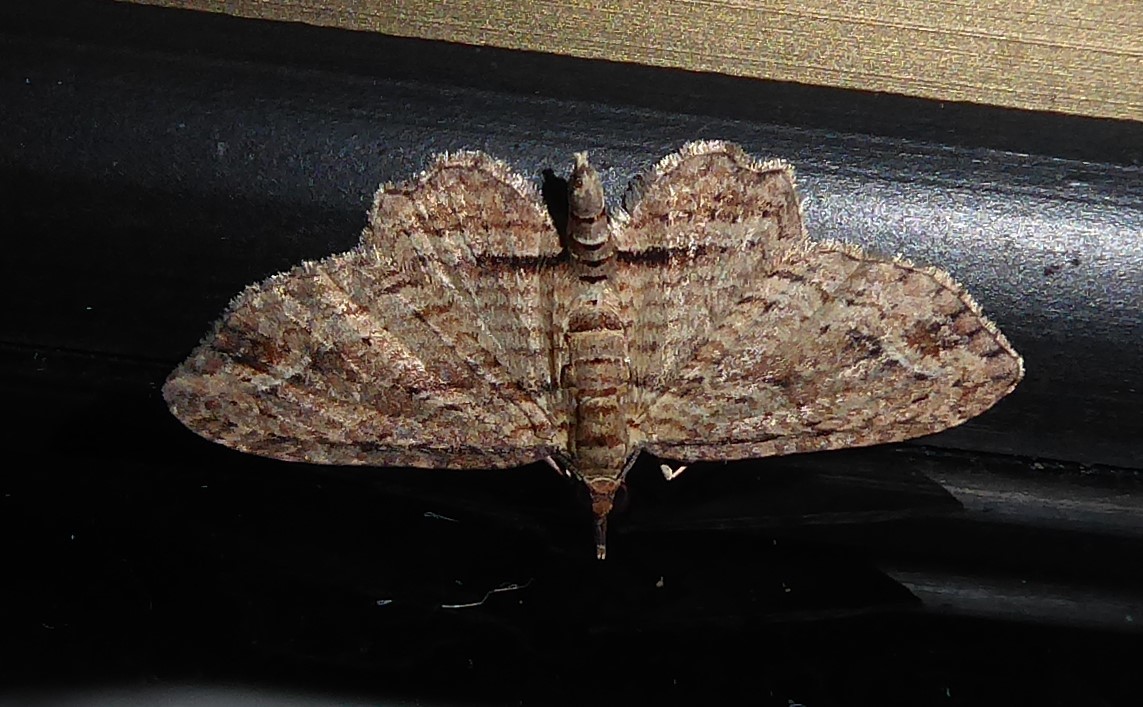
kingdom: Animalia
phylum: Arthropoda
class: Insecta
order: Lepidoptera
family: Geometridae
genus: Chloroclystis
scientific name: Chloroclystis filata
